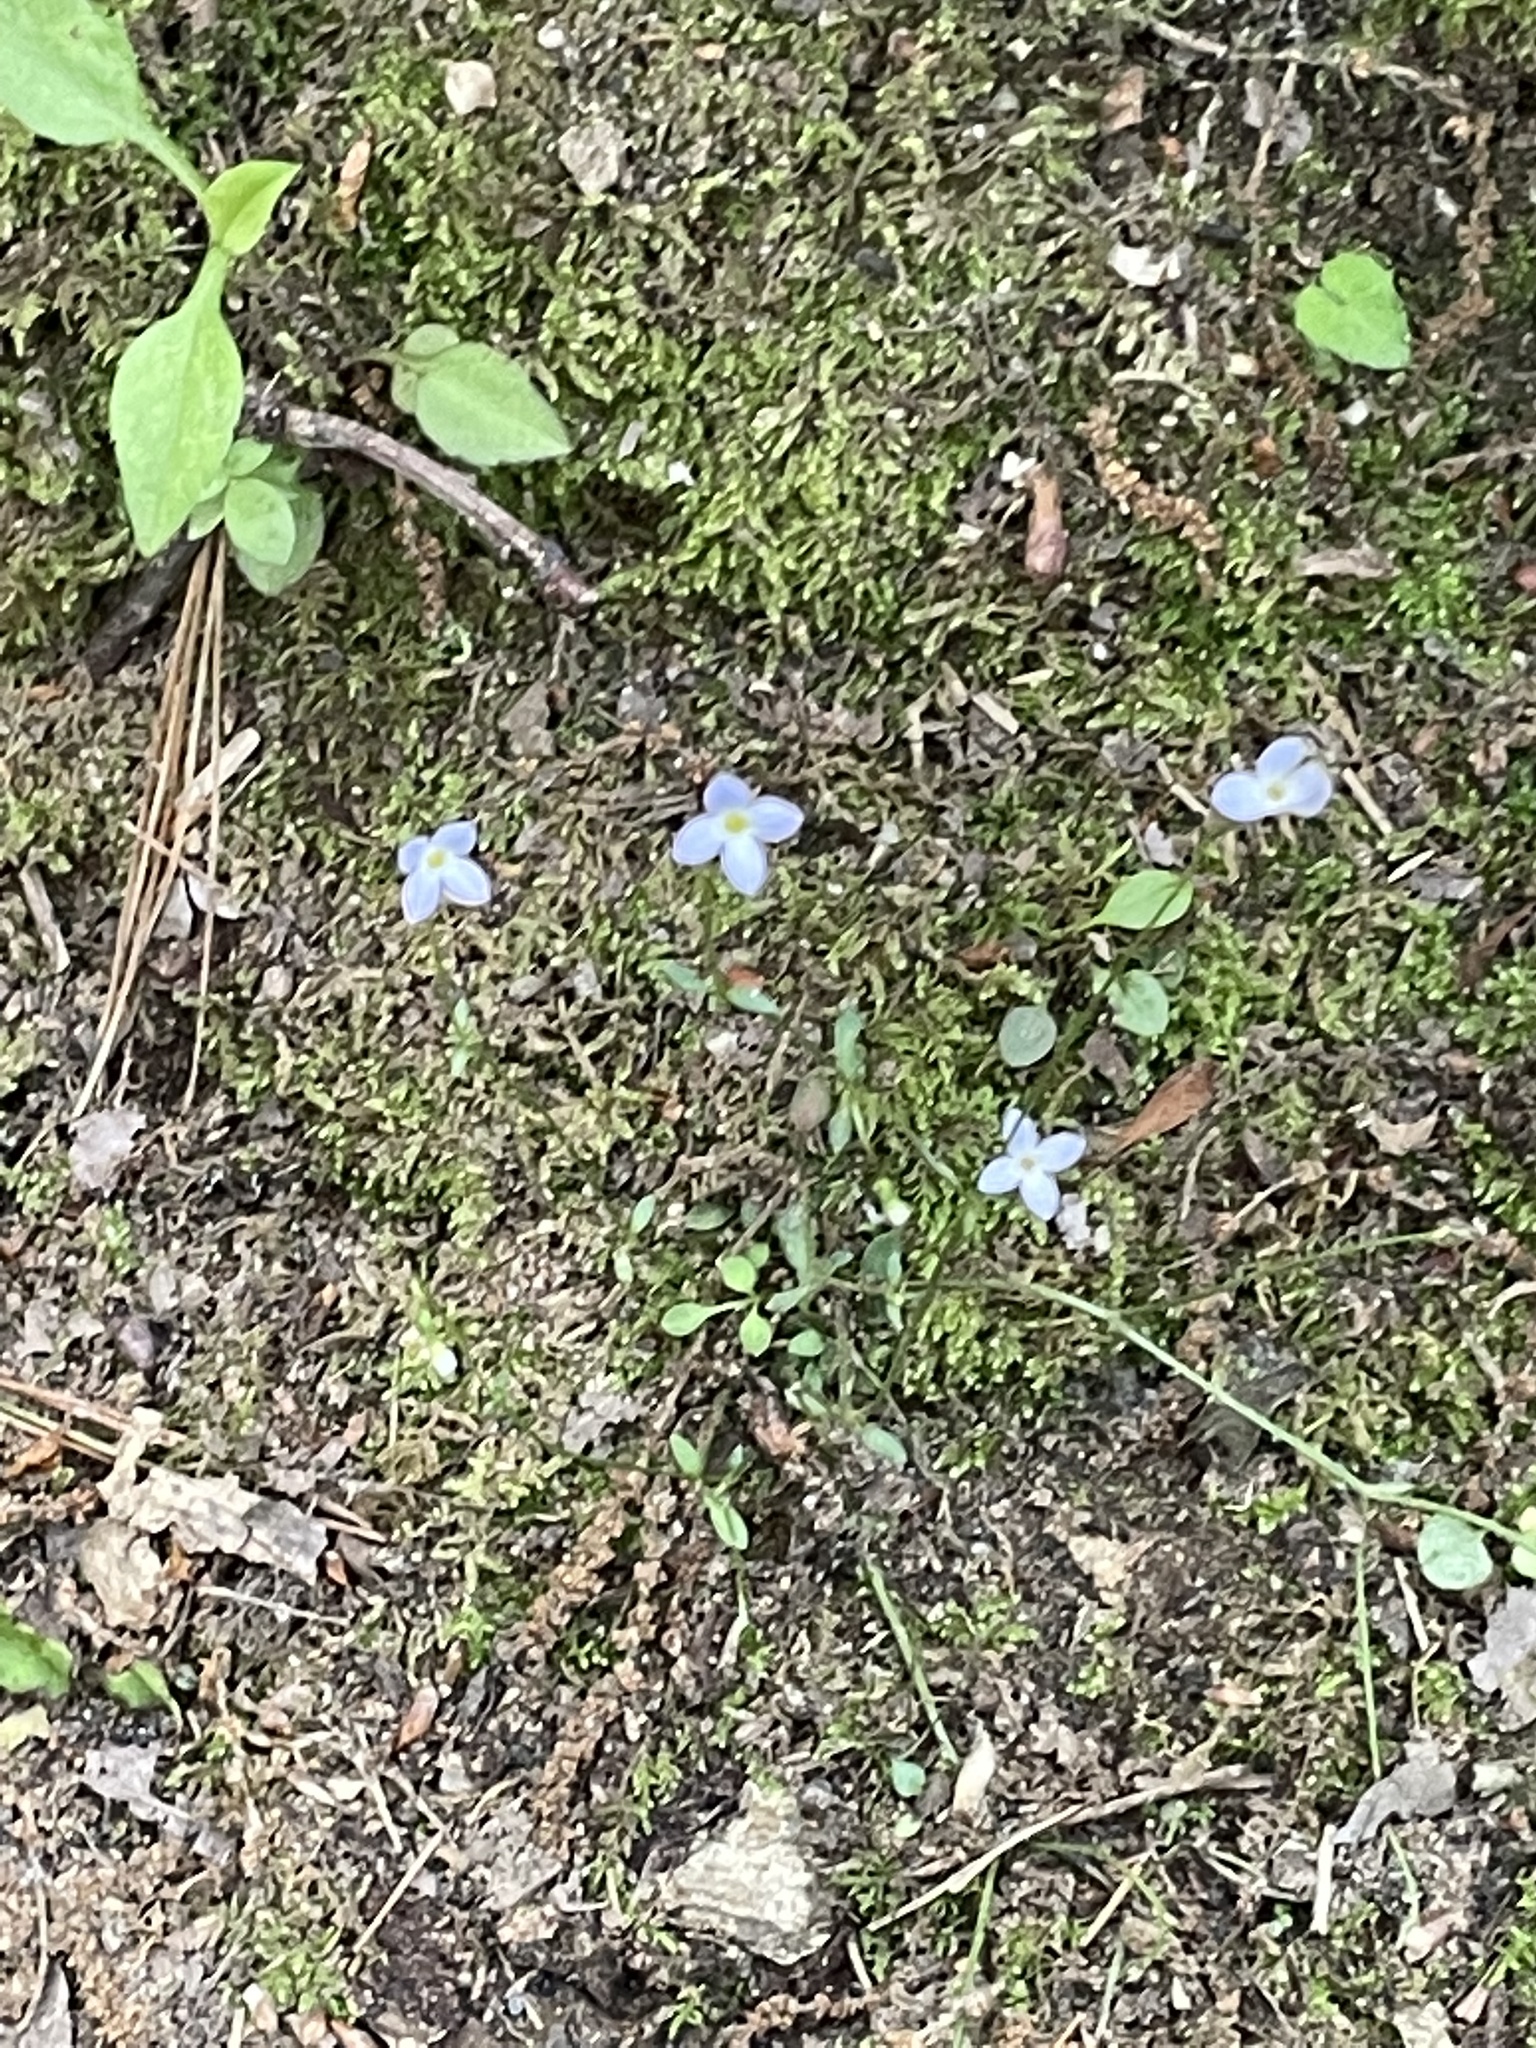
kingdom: Plantae
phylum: Tracheophyta
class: Magnoliopsida
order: Gentianales
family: Rubiaceae
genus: Houstonia
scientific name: Houstonia caerulea
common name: Bluets
